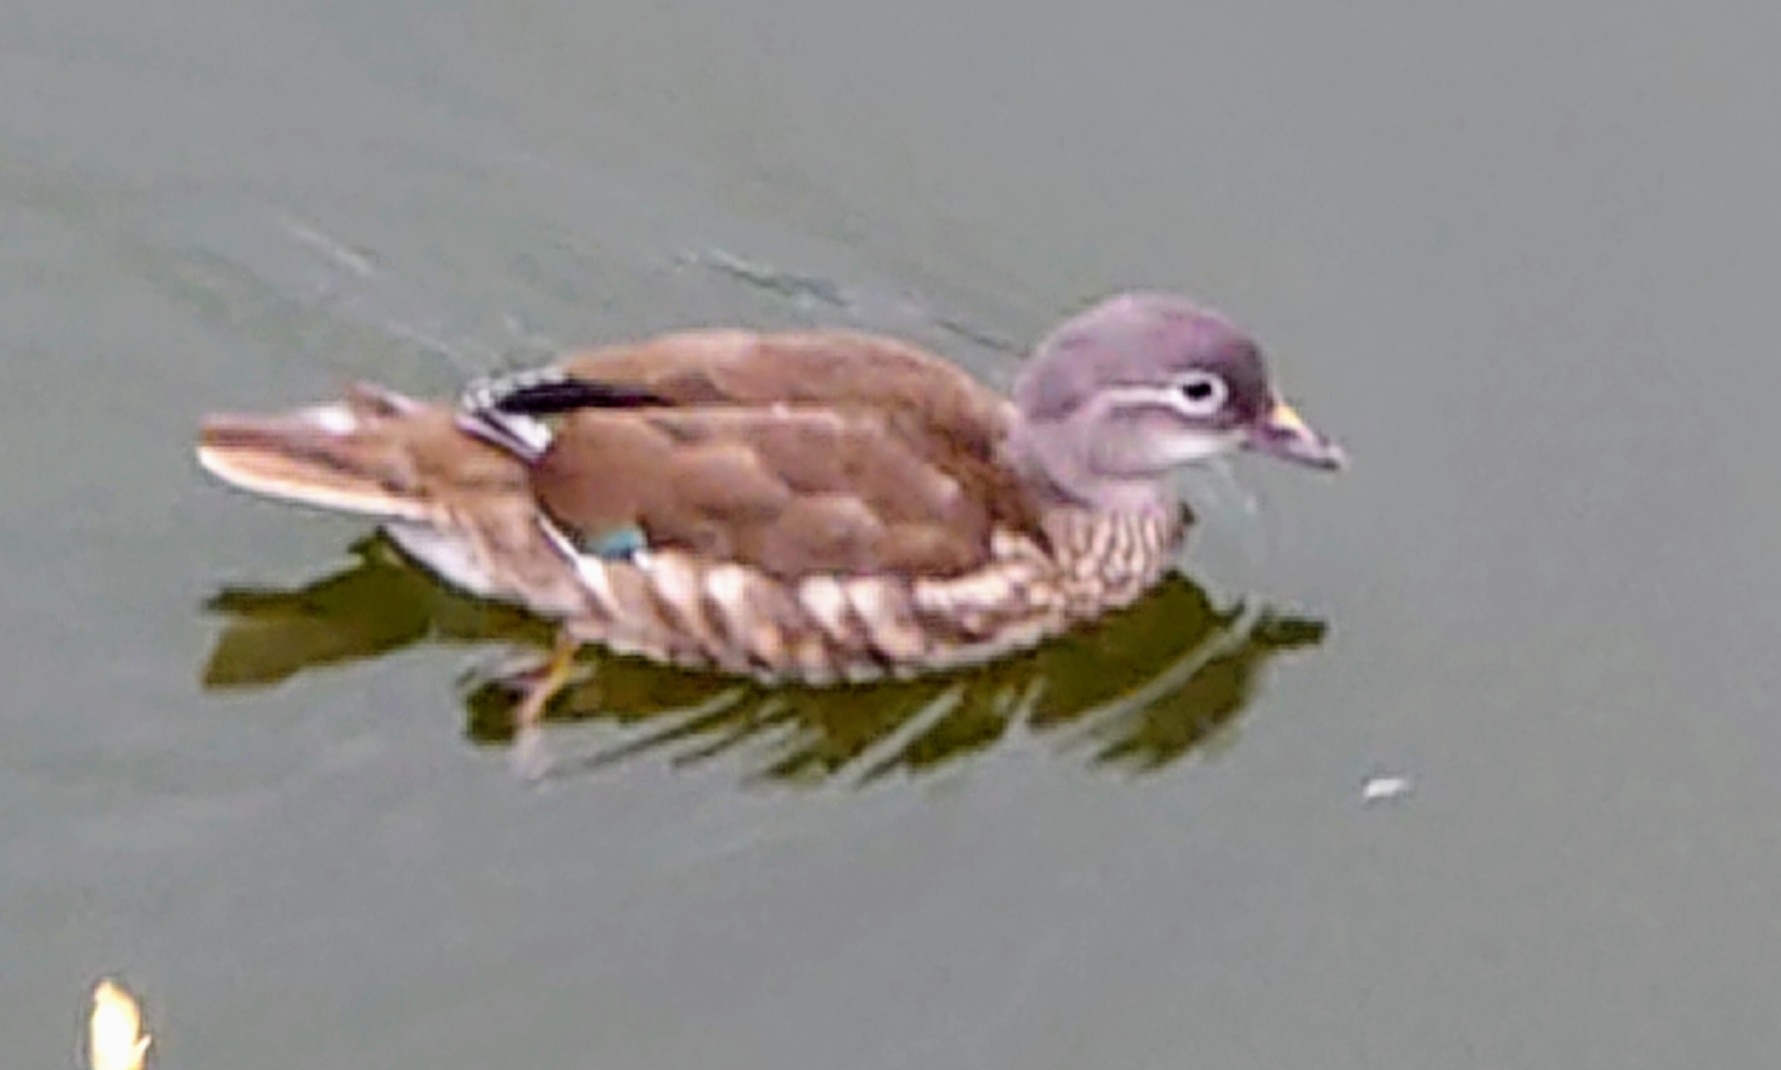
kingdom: Animalia
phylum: Chordata
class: Aves
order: Anseriformes
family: Anatidae
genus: Aix
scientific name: Aix galericulata
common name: Mandarin duck
